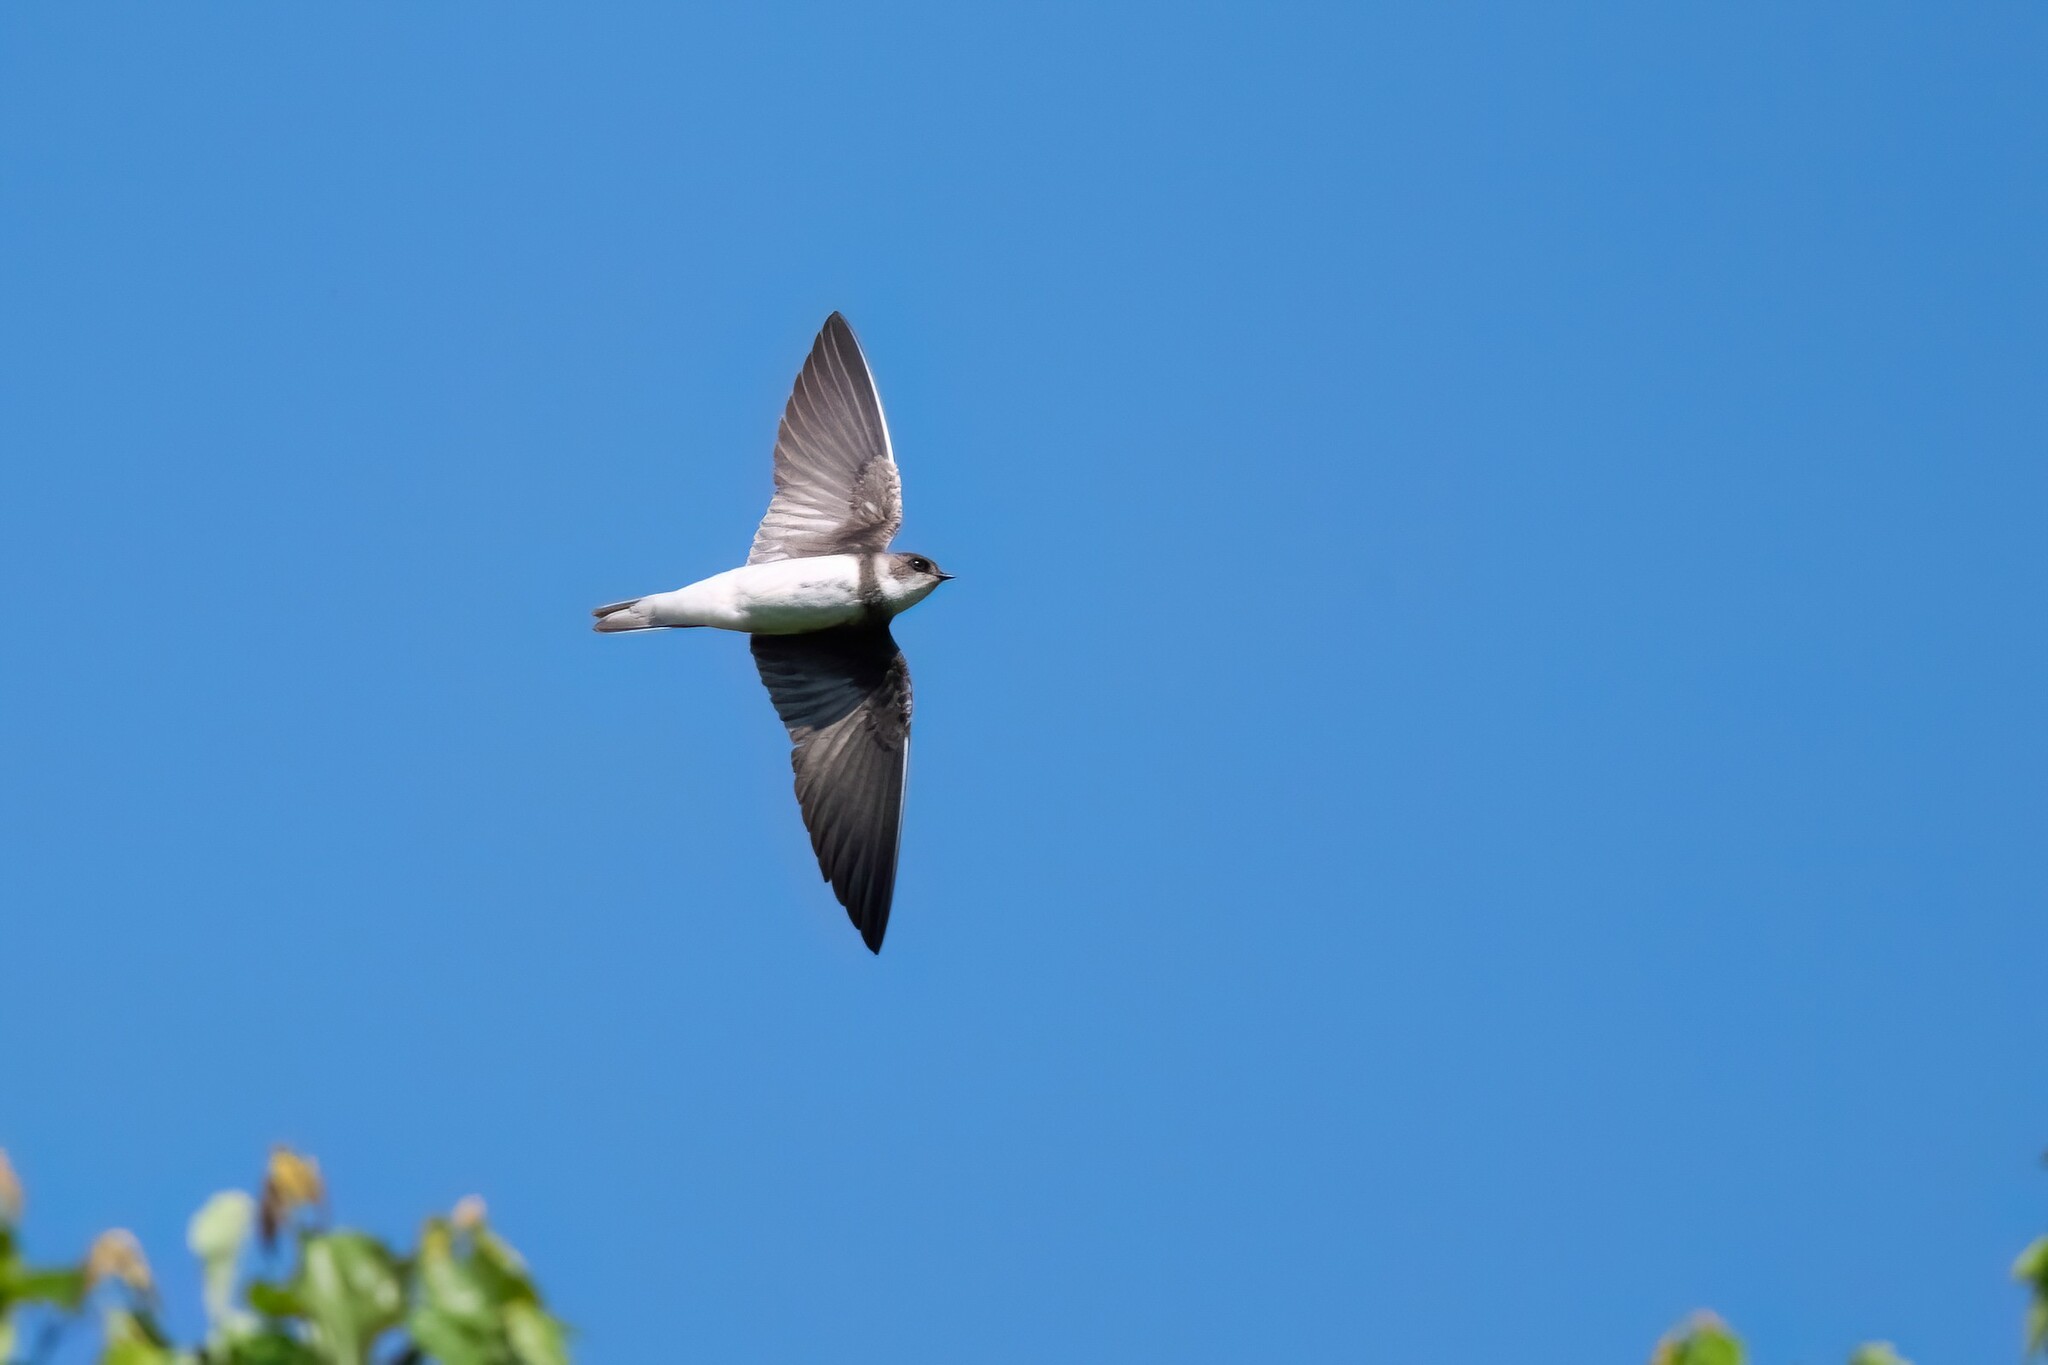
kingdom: Animalia
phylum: Chordata
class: Aves
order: Passeriformes
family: Hirundinidae
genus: Riparia
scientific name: Riparia riparia
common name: Sand martin
